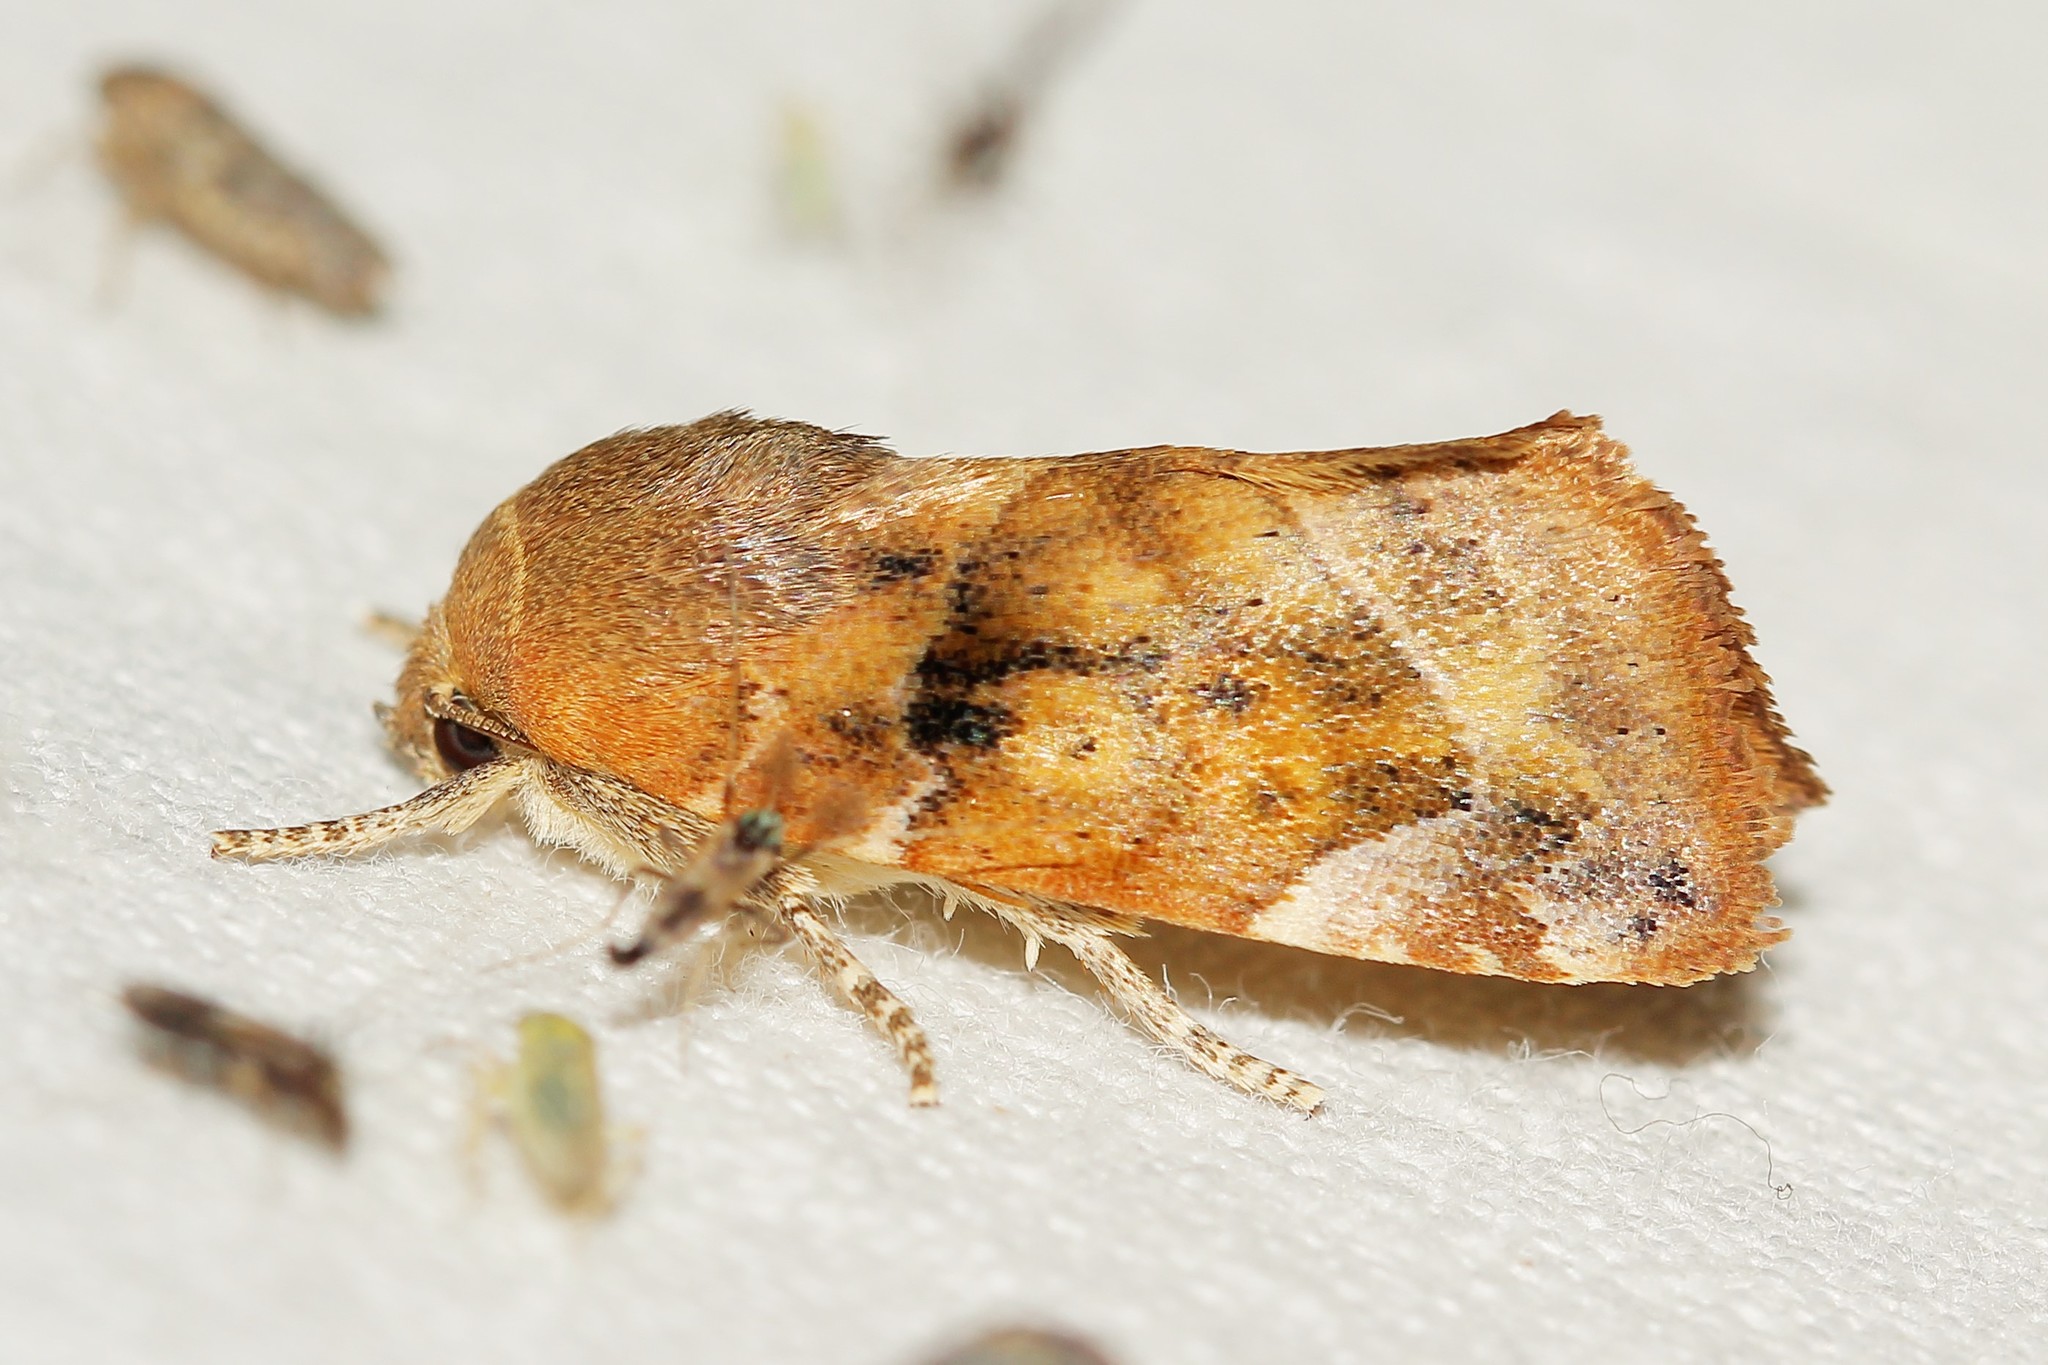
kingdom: Animalia
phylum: Arthropoda
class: Insecta
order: Lepidoptera
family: Noctuidae
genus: Cosmia
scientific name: Cosmia affinis
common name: Lesser-spotted pinion
